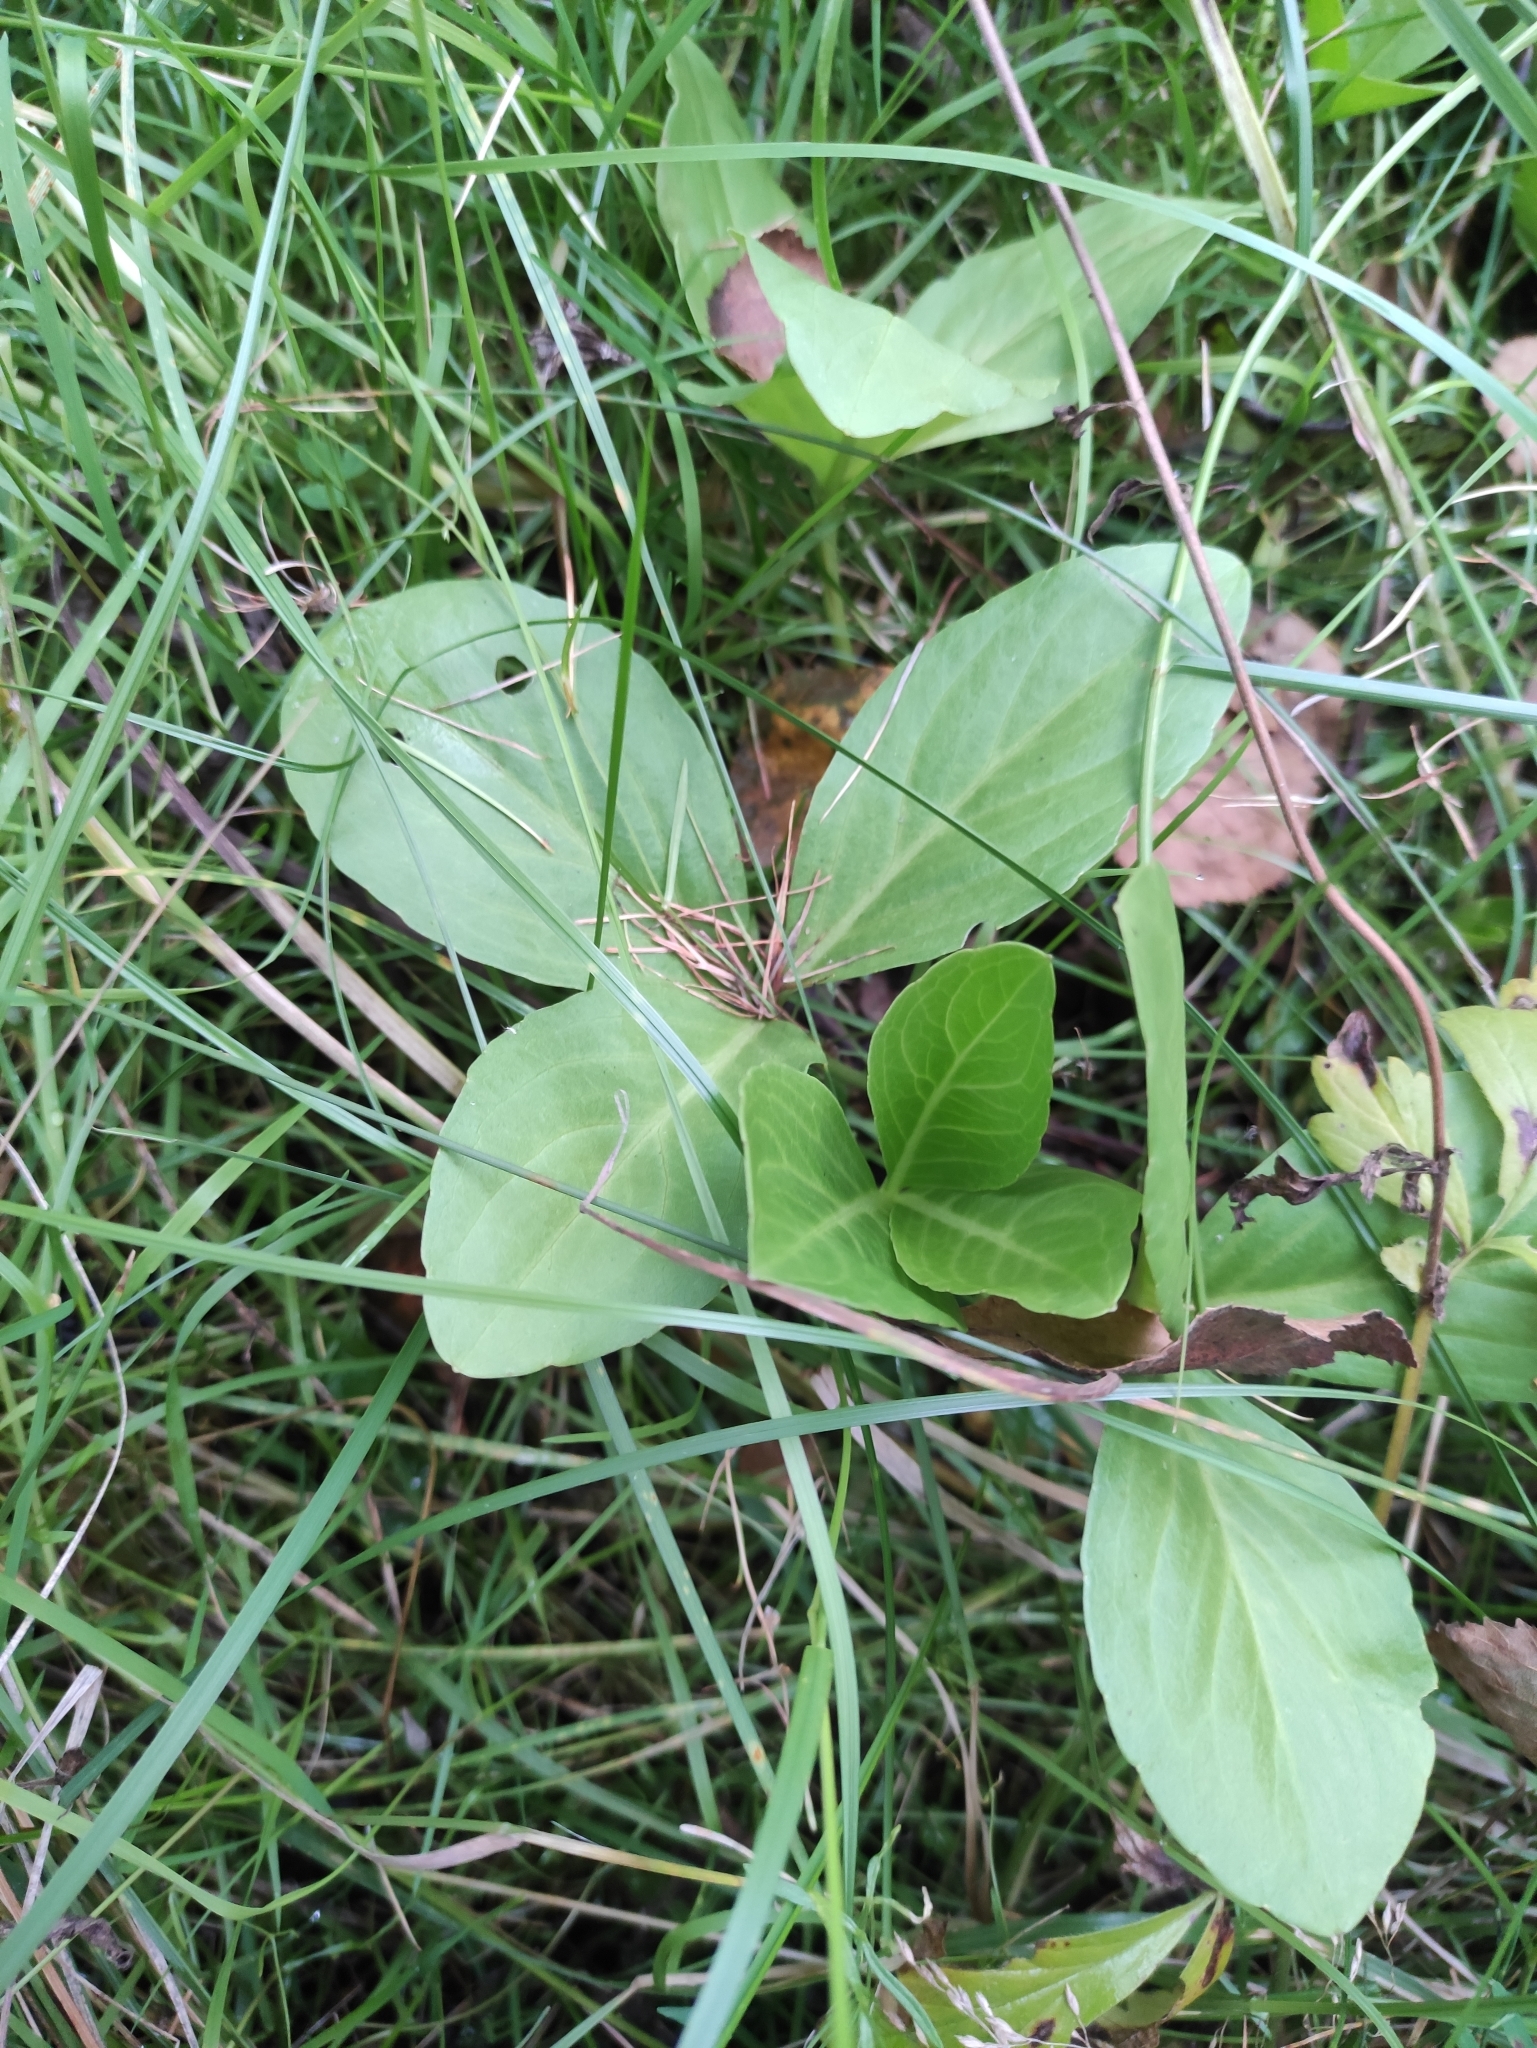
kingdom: Plantae
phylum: Tracheophyta
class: Magnoliopsida
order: Asterales
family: Menyanthaceae
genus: Menyanthes
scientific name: Menyanthes trifoliata
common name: Bogbean
